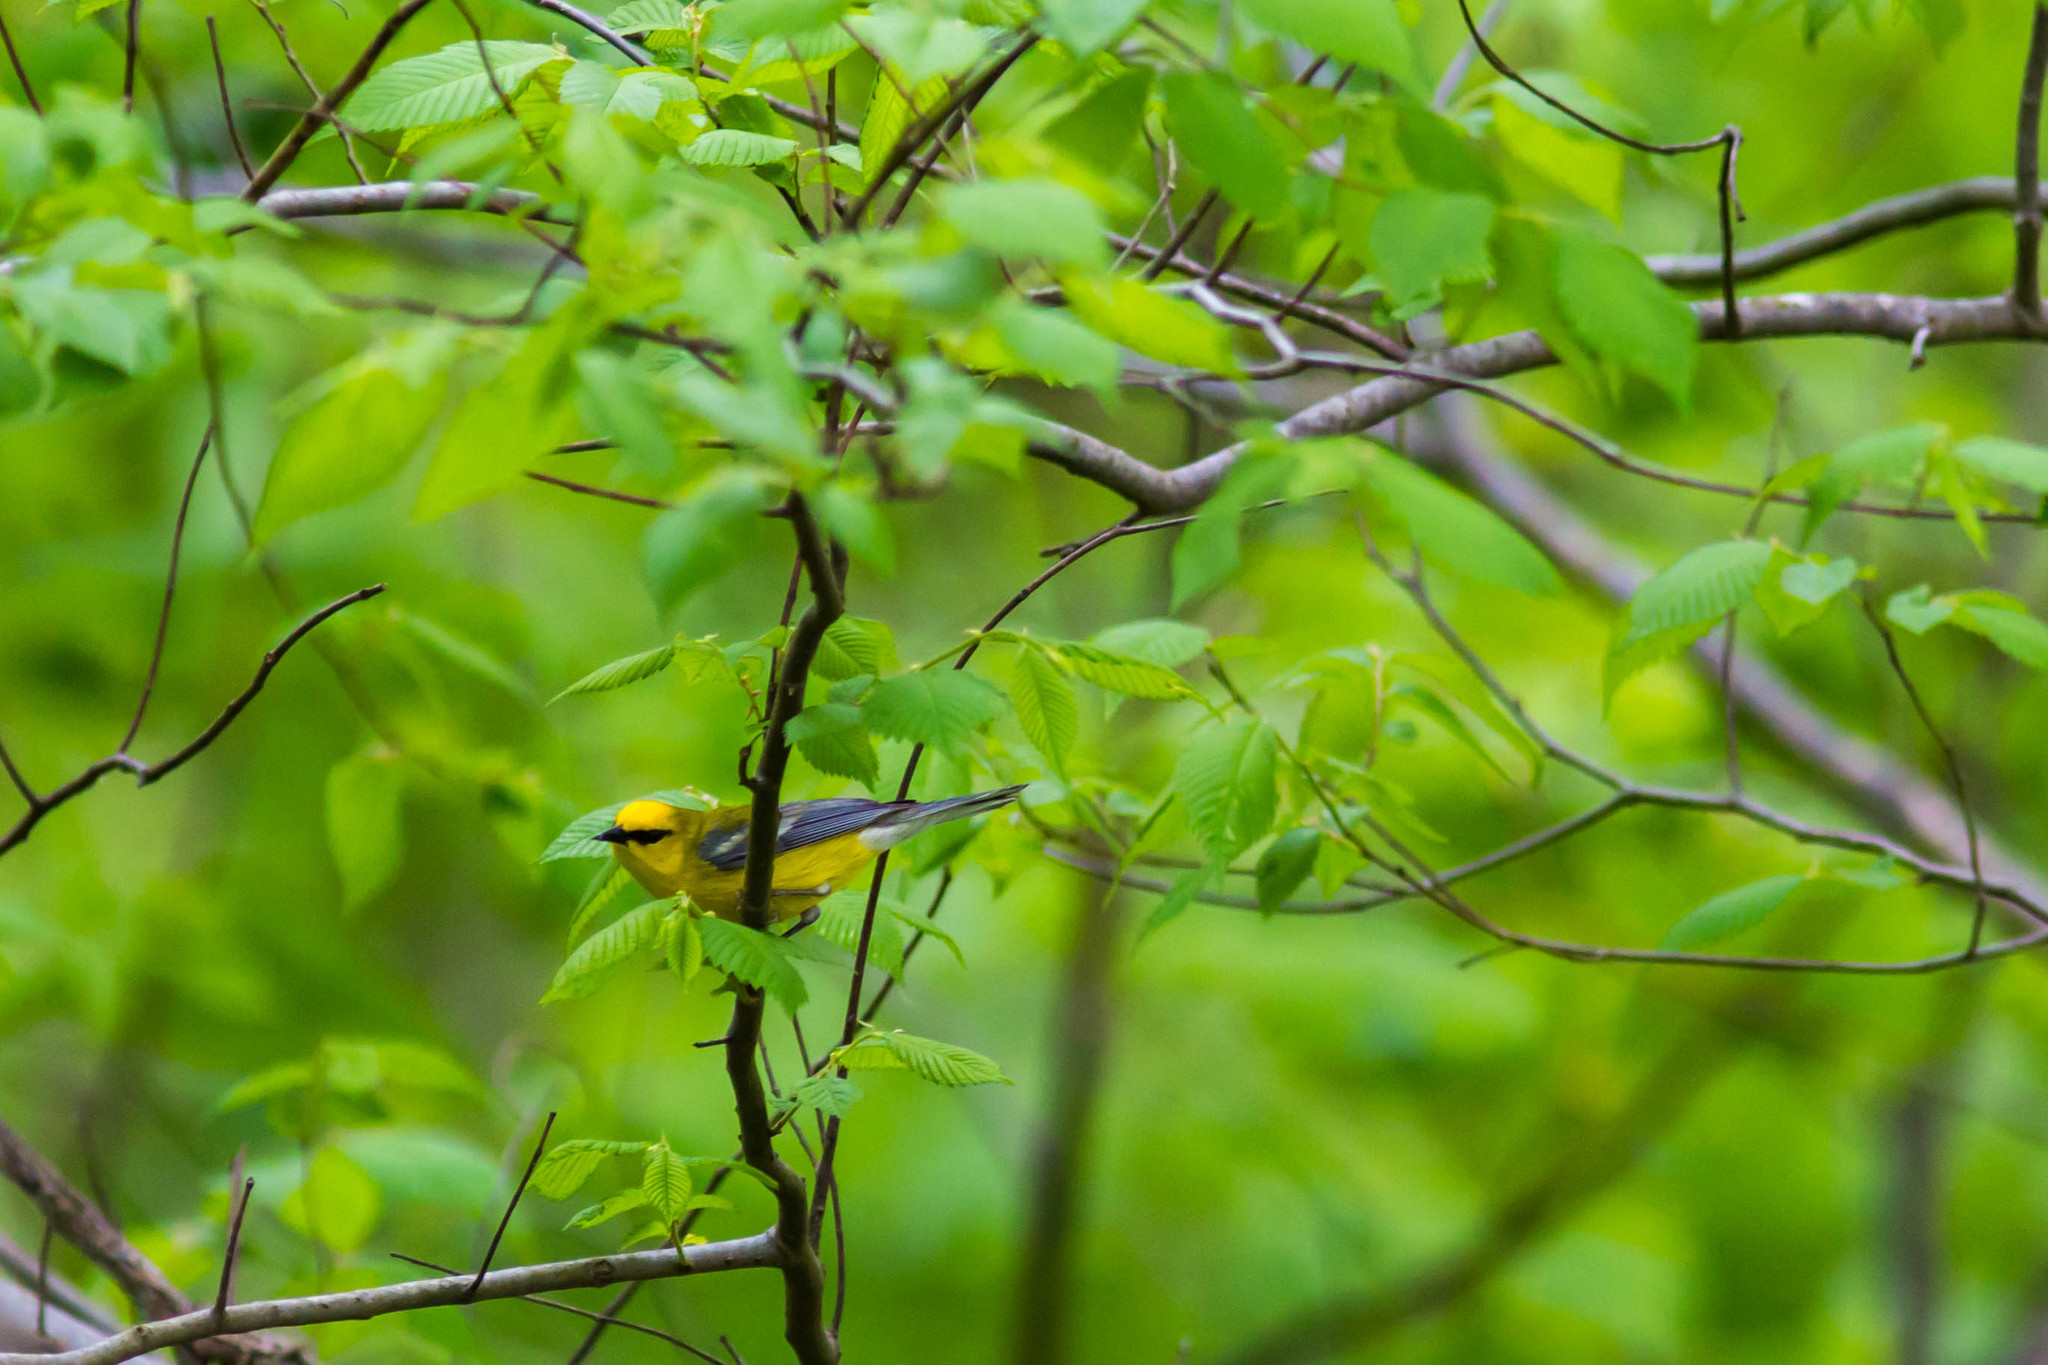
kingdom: Animalia
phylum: Chordata
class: Aves
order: Passeriformes
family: Parulidae
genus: Vermivora
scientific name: Vermivora cyanoptera
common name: Blue-winged warbler
